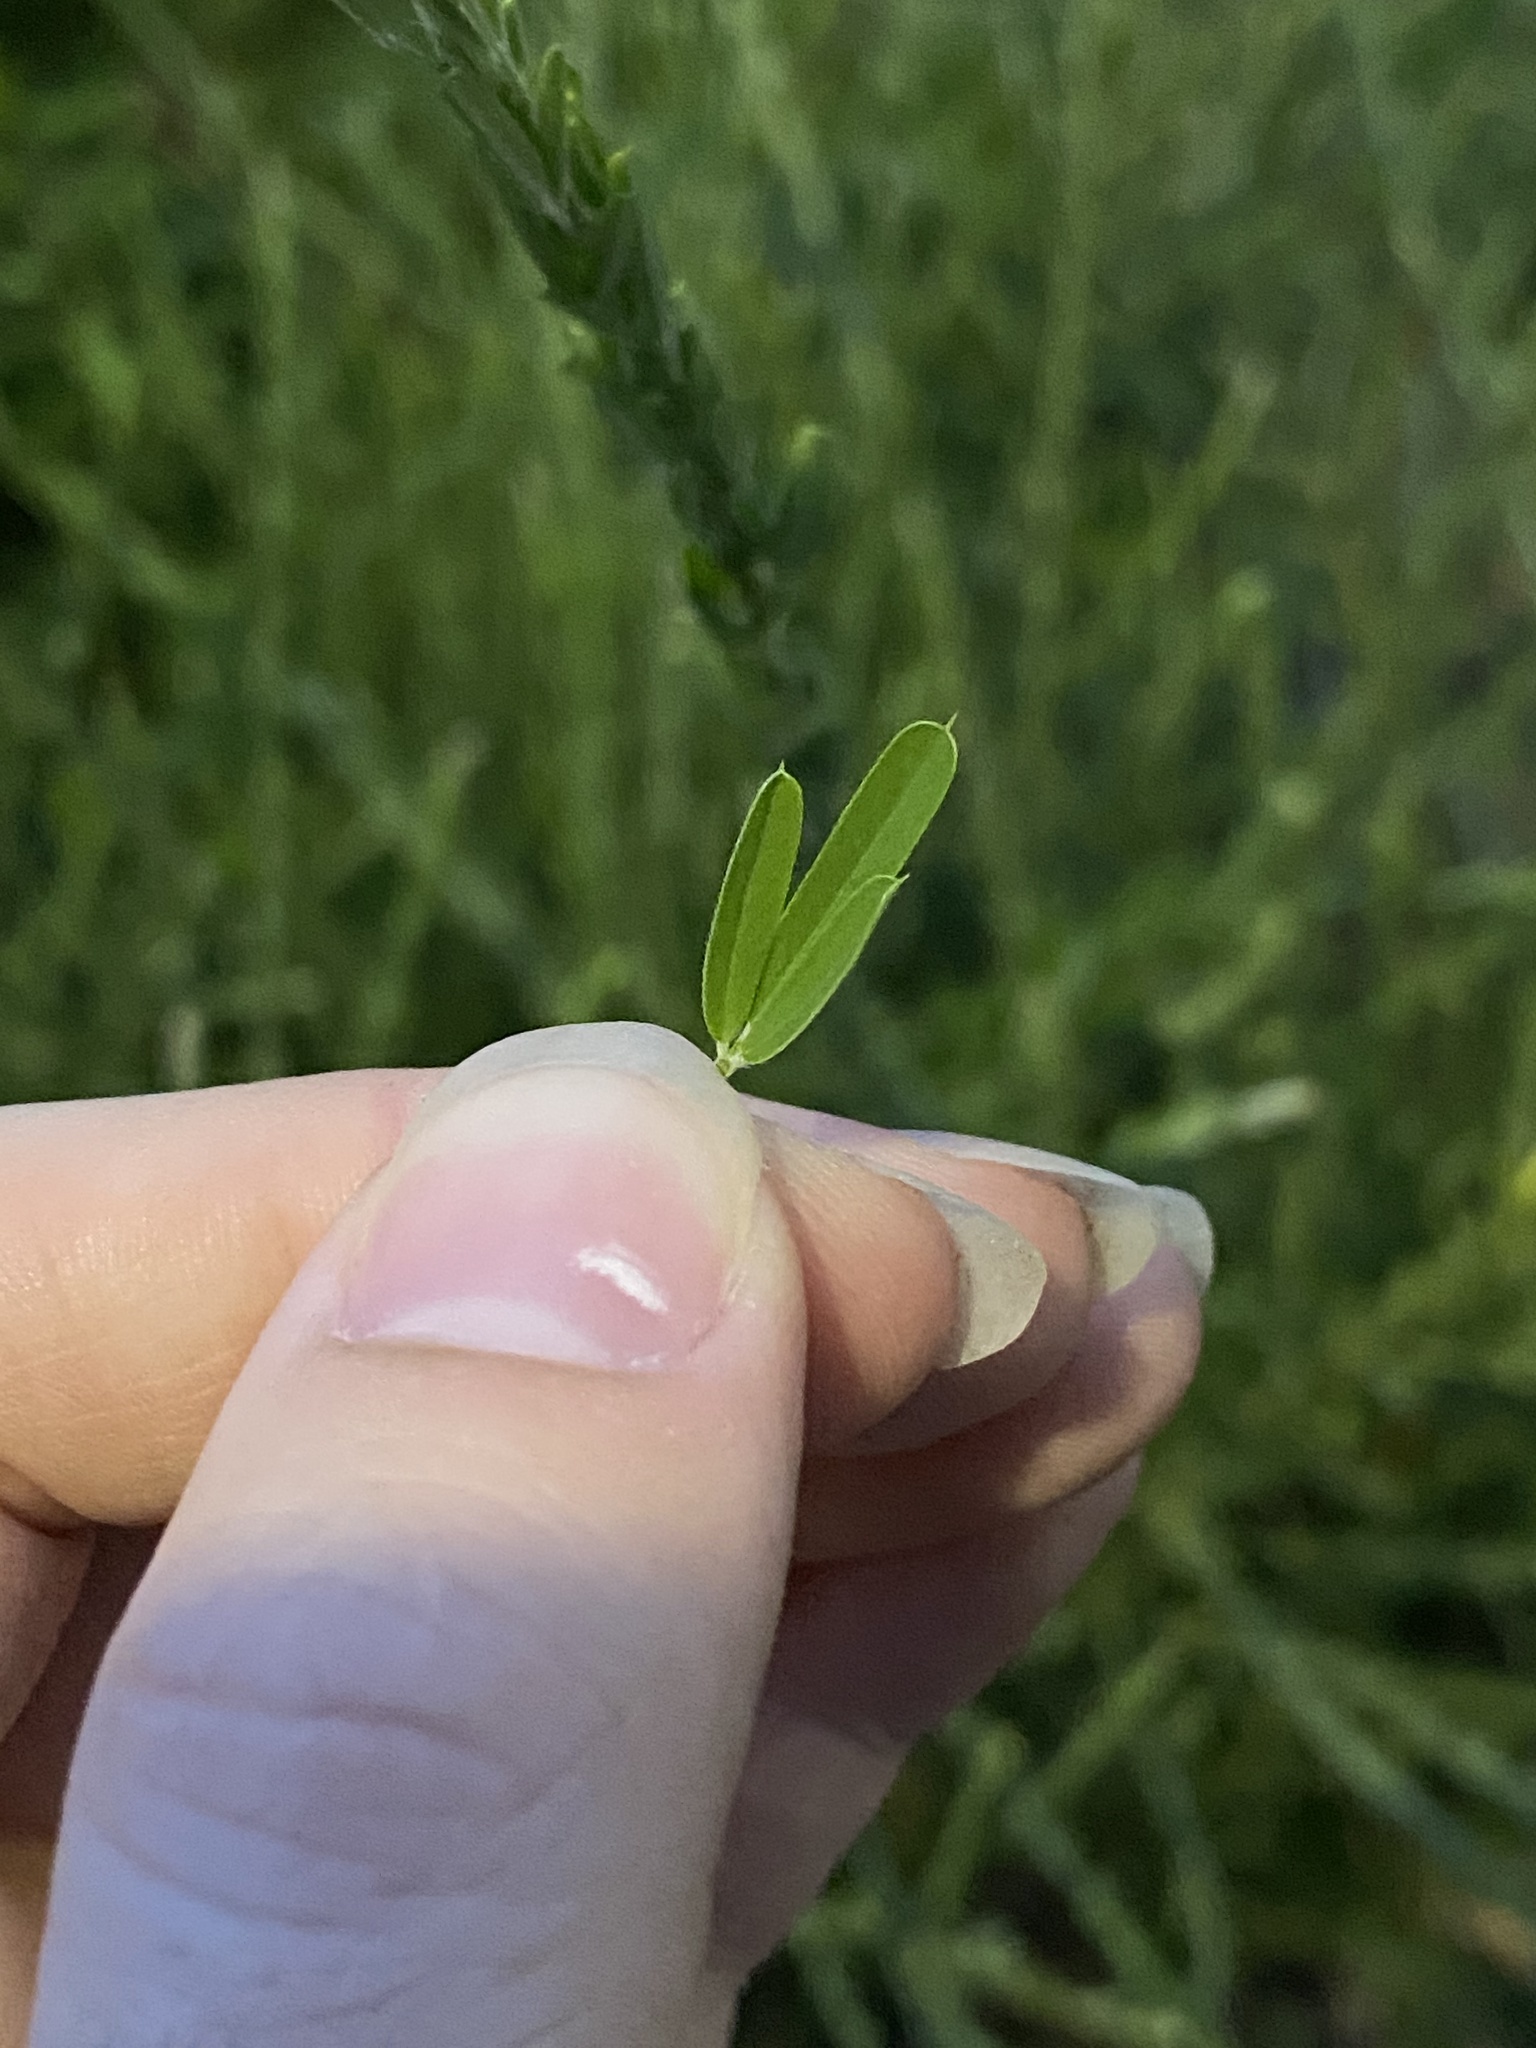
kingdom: Plantae
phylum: Tracheophyta
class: Magnoliopsida
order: Fabales
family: Fabaceae
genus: Lespedeza
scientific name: Lespedeza cuneata
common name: Chinese bush-clover
